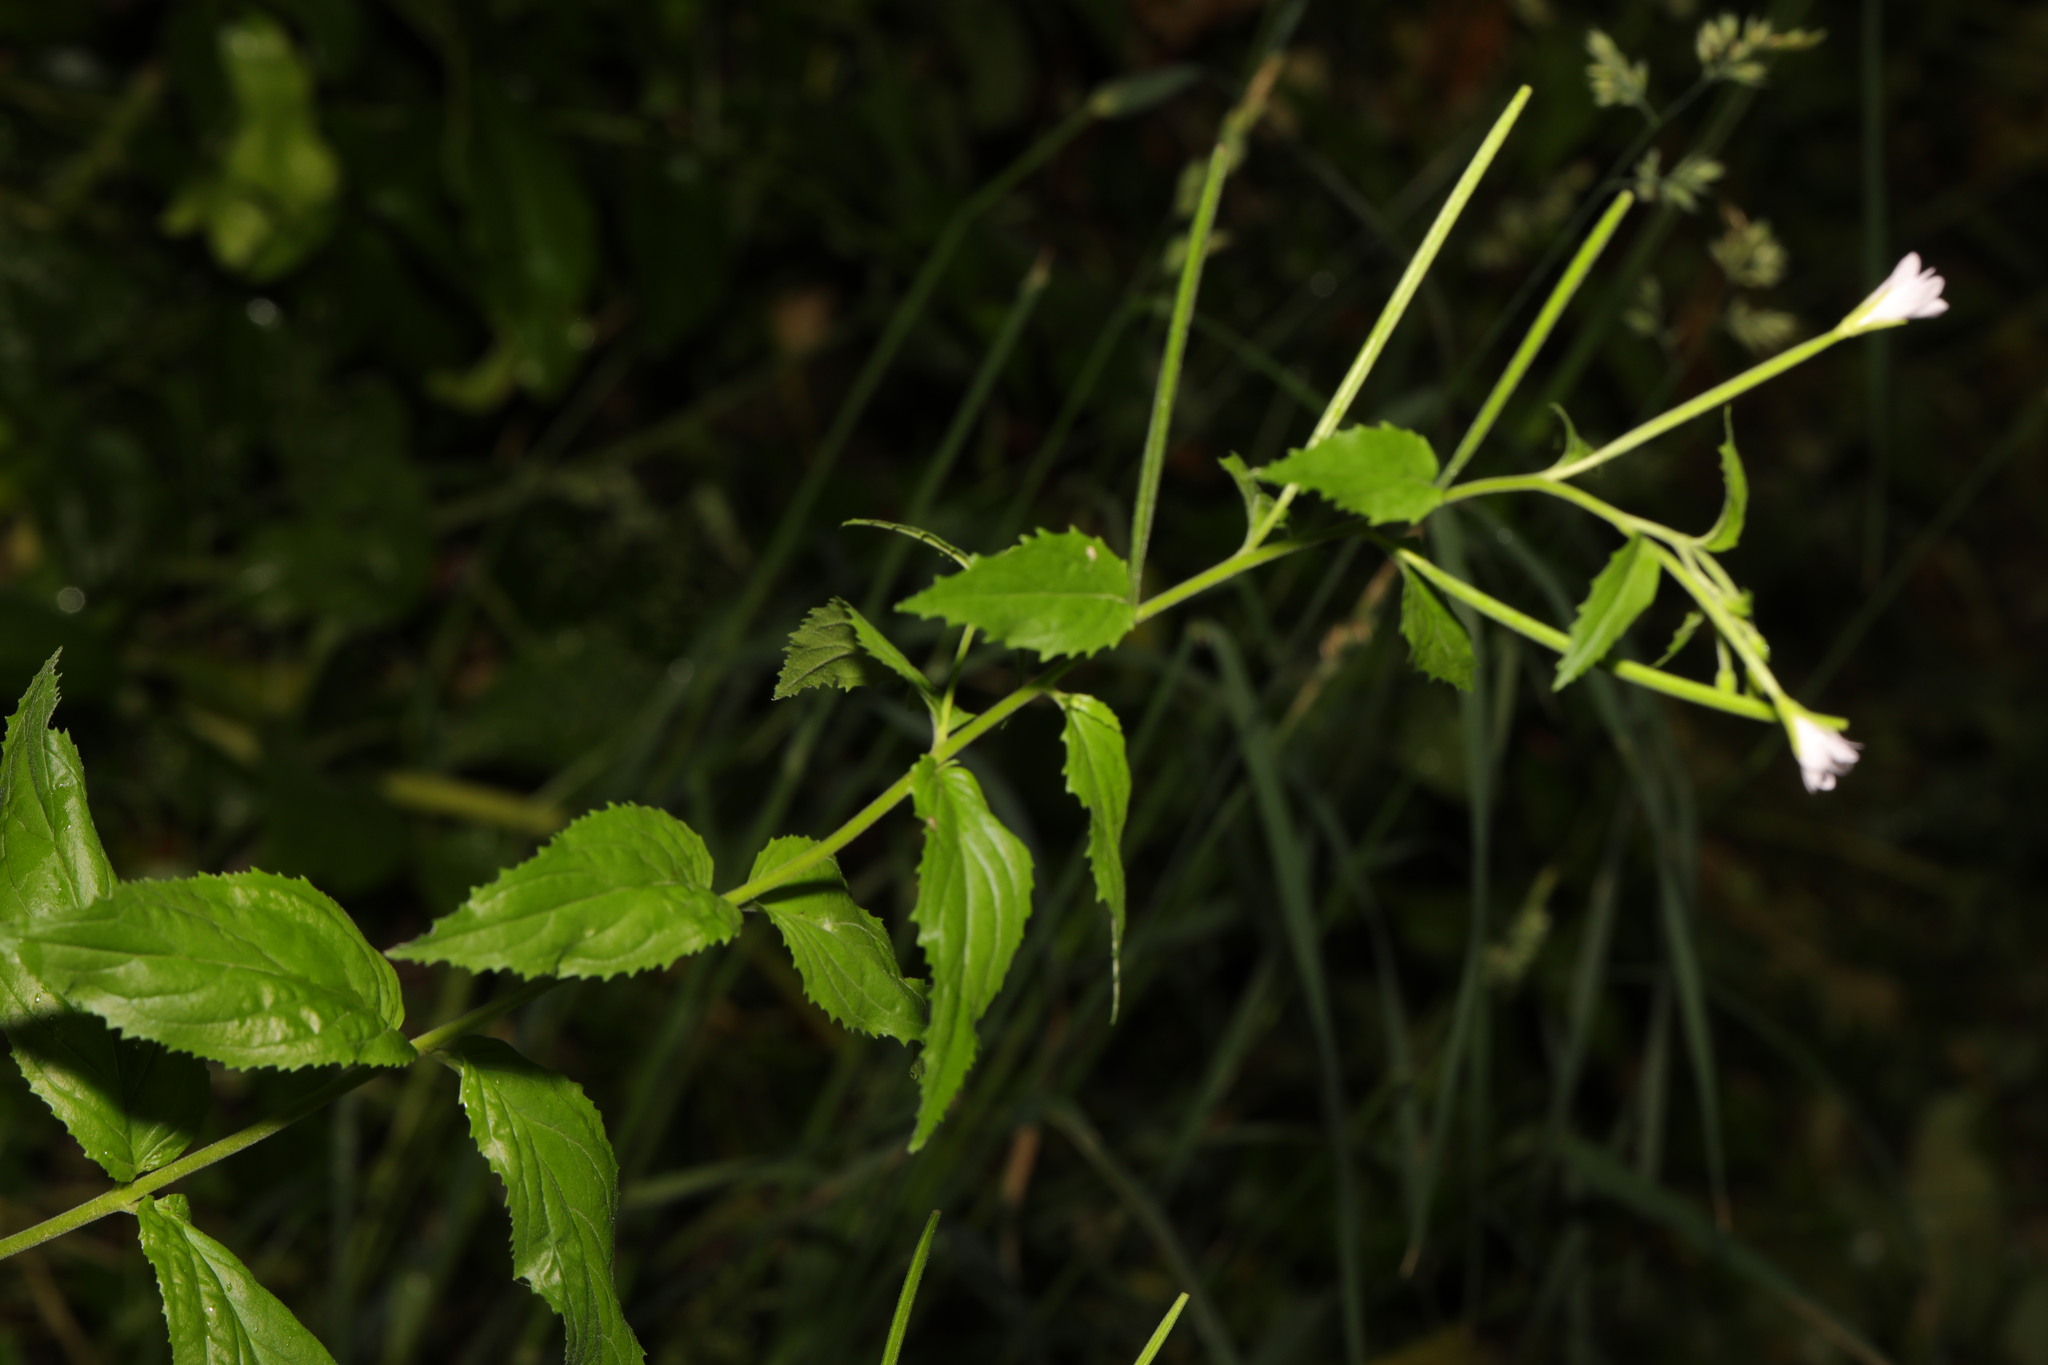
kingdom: Plantae
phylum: Tracheophyta
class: Magnoliopsida
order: Myrtales
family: Onagraceae
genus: Epilobium
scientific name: Epilobium montanum
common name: Broad-leaved willowherb
